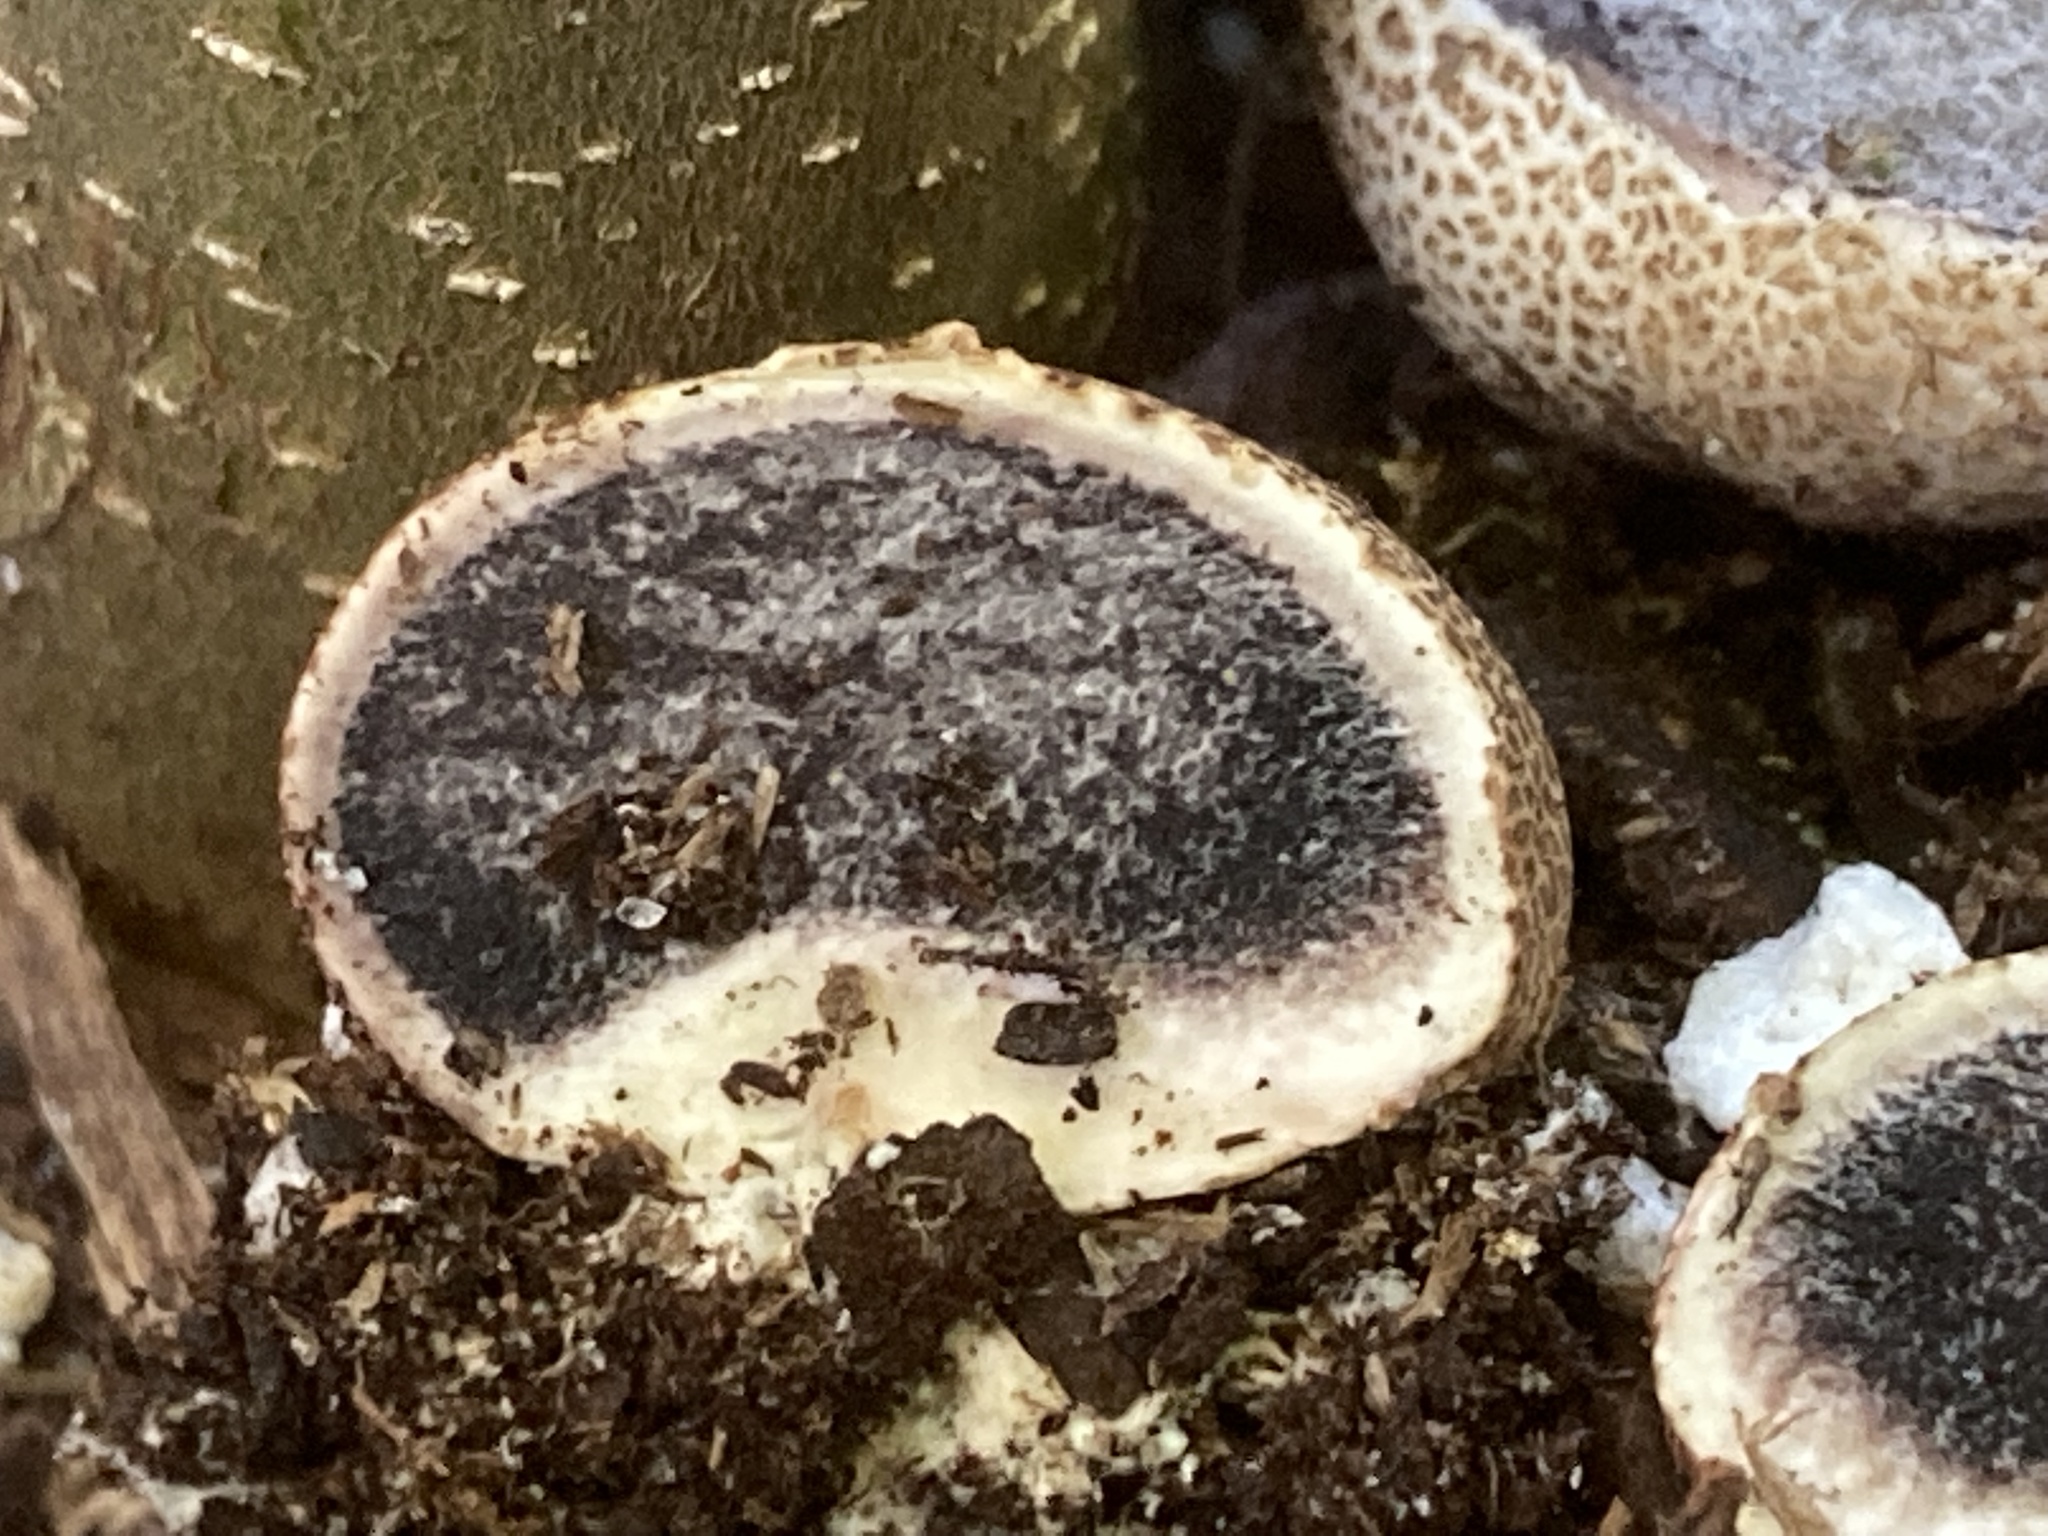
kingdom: Fungi
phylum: Basidiomycota
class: Agaricomycetes
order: Boletales
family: Sclerodermataceae
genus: Scleroderma
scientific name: Scleroderma citrinum
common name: Common earthball
